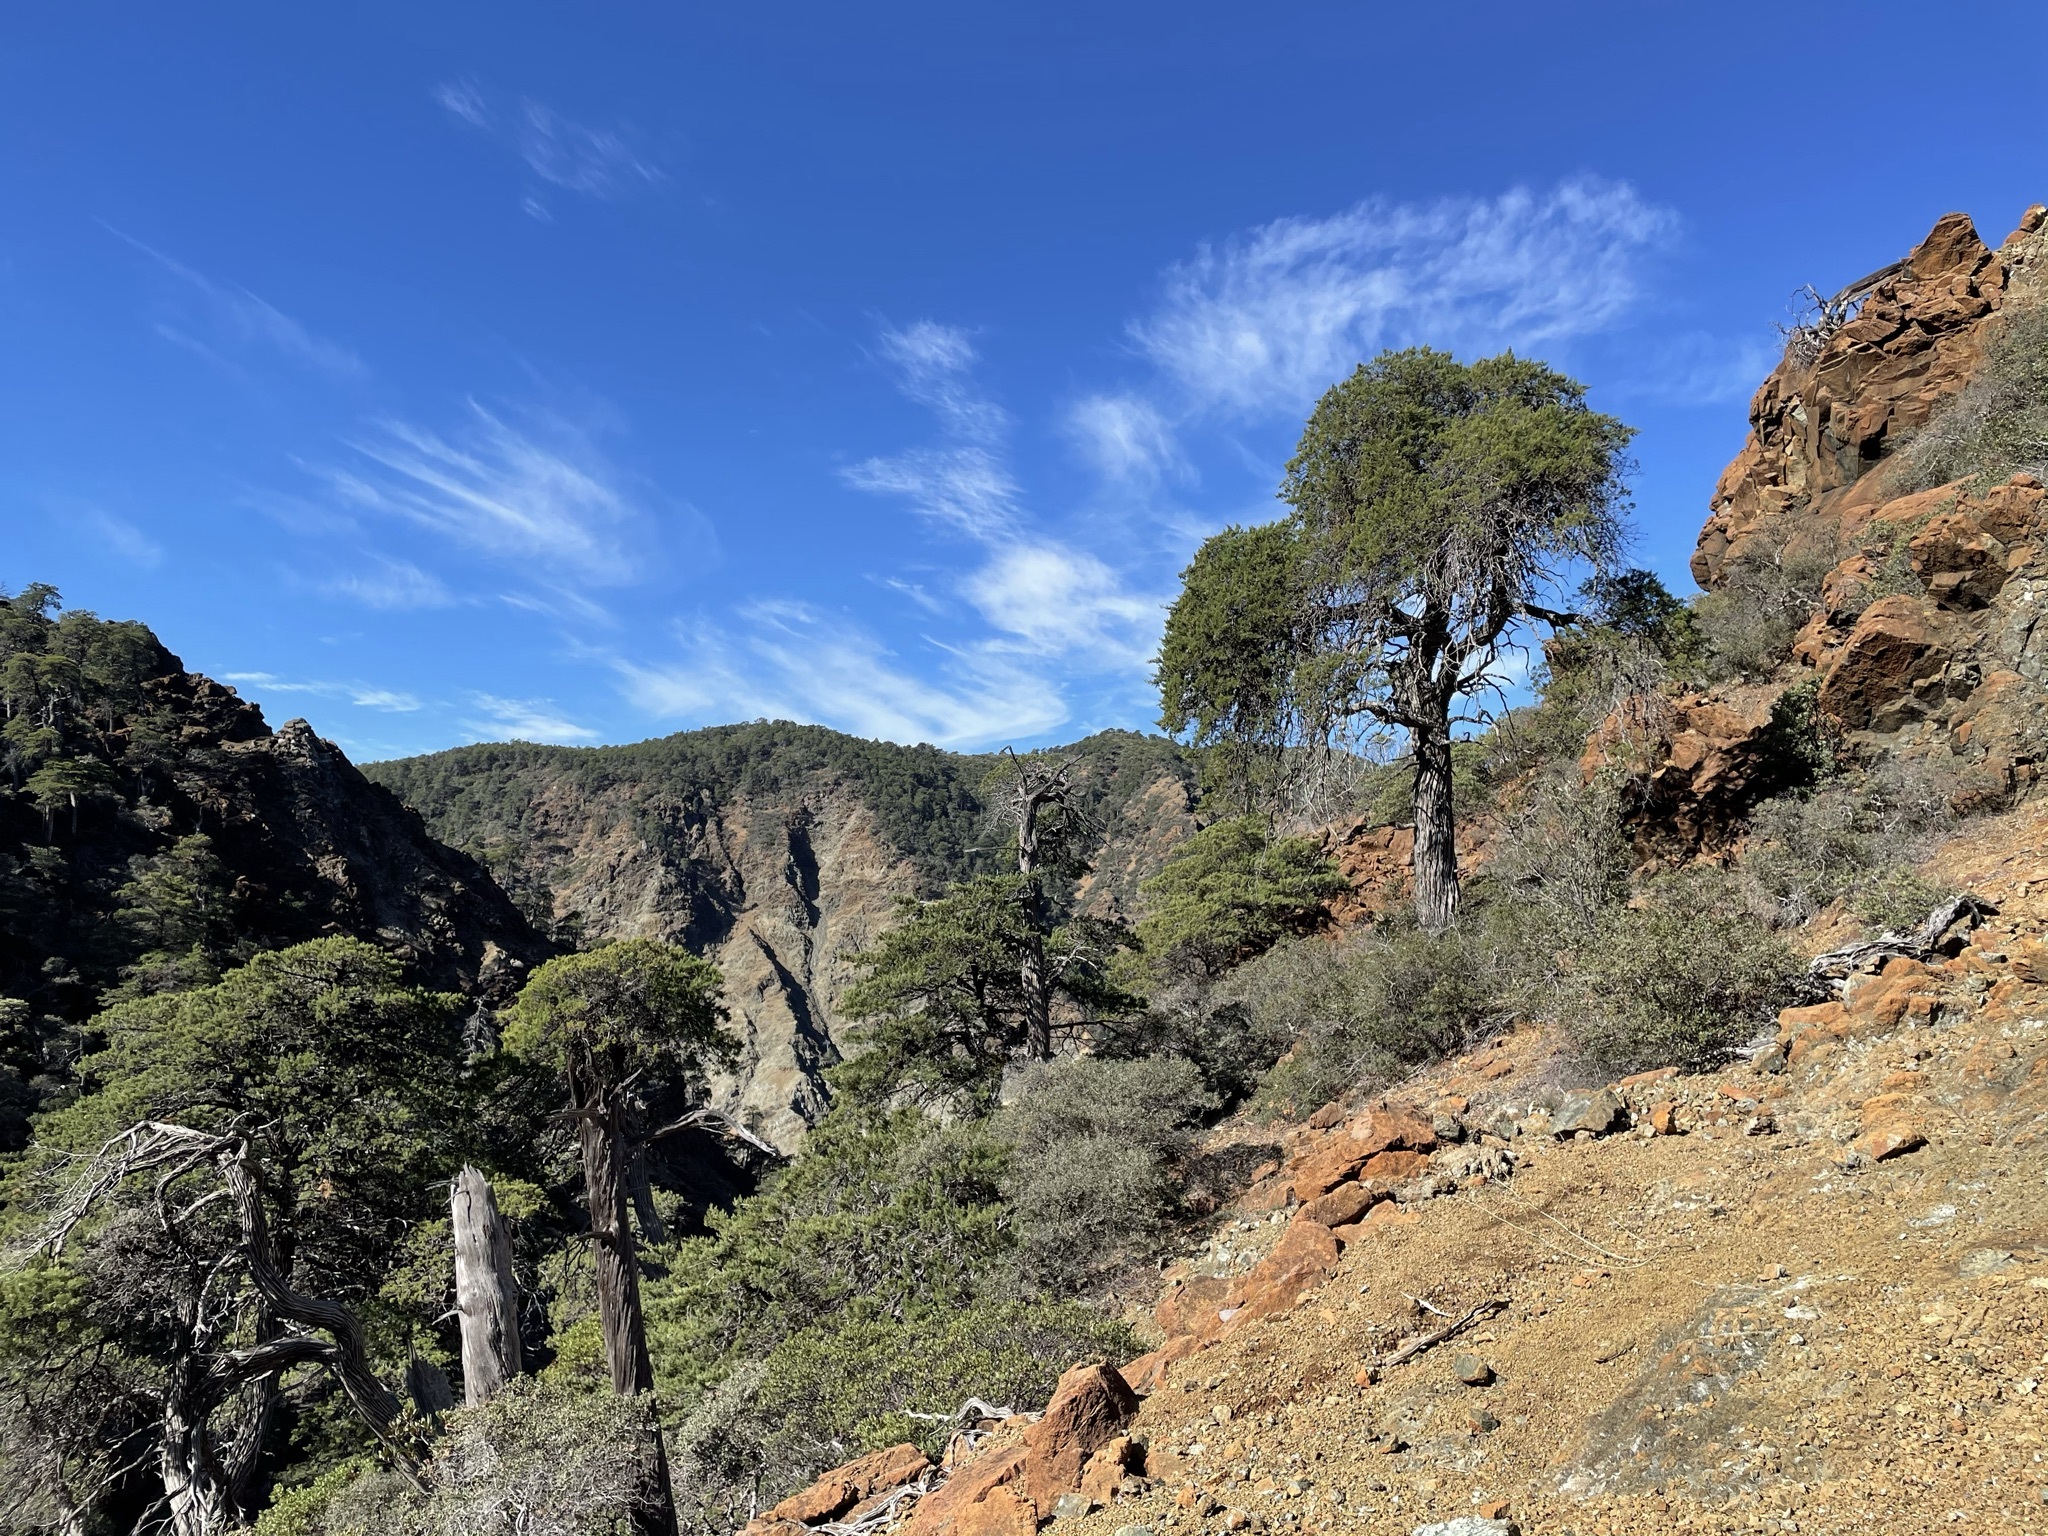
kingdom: Plantae
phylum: Tracheophyta
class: Pinopsida
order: Pinales
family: Cupressaceae
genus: Cupressus
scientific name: Cupressus sargentii
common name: Sargent cypress
